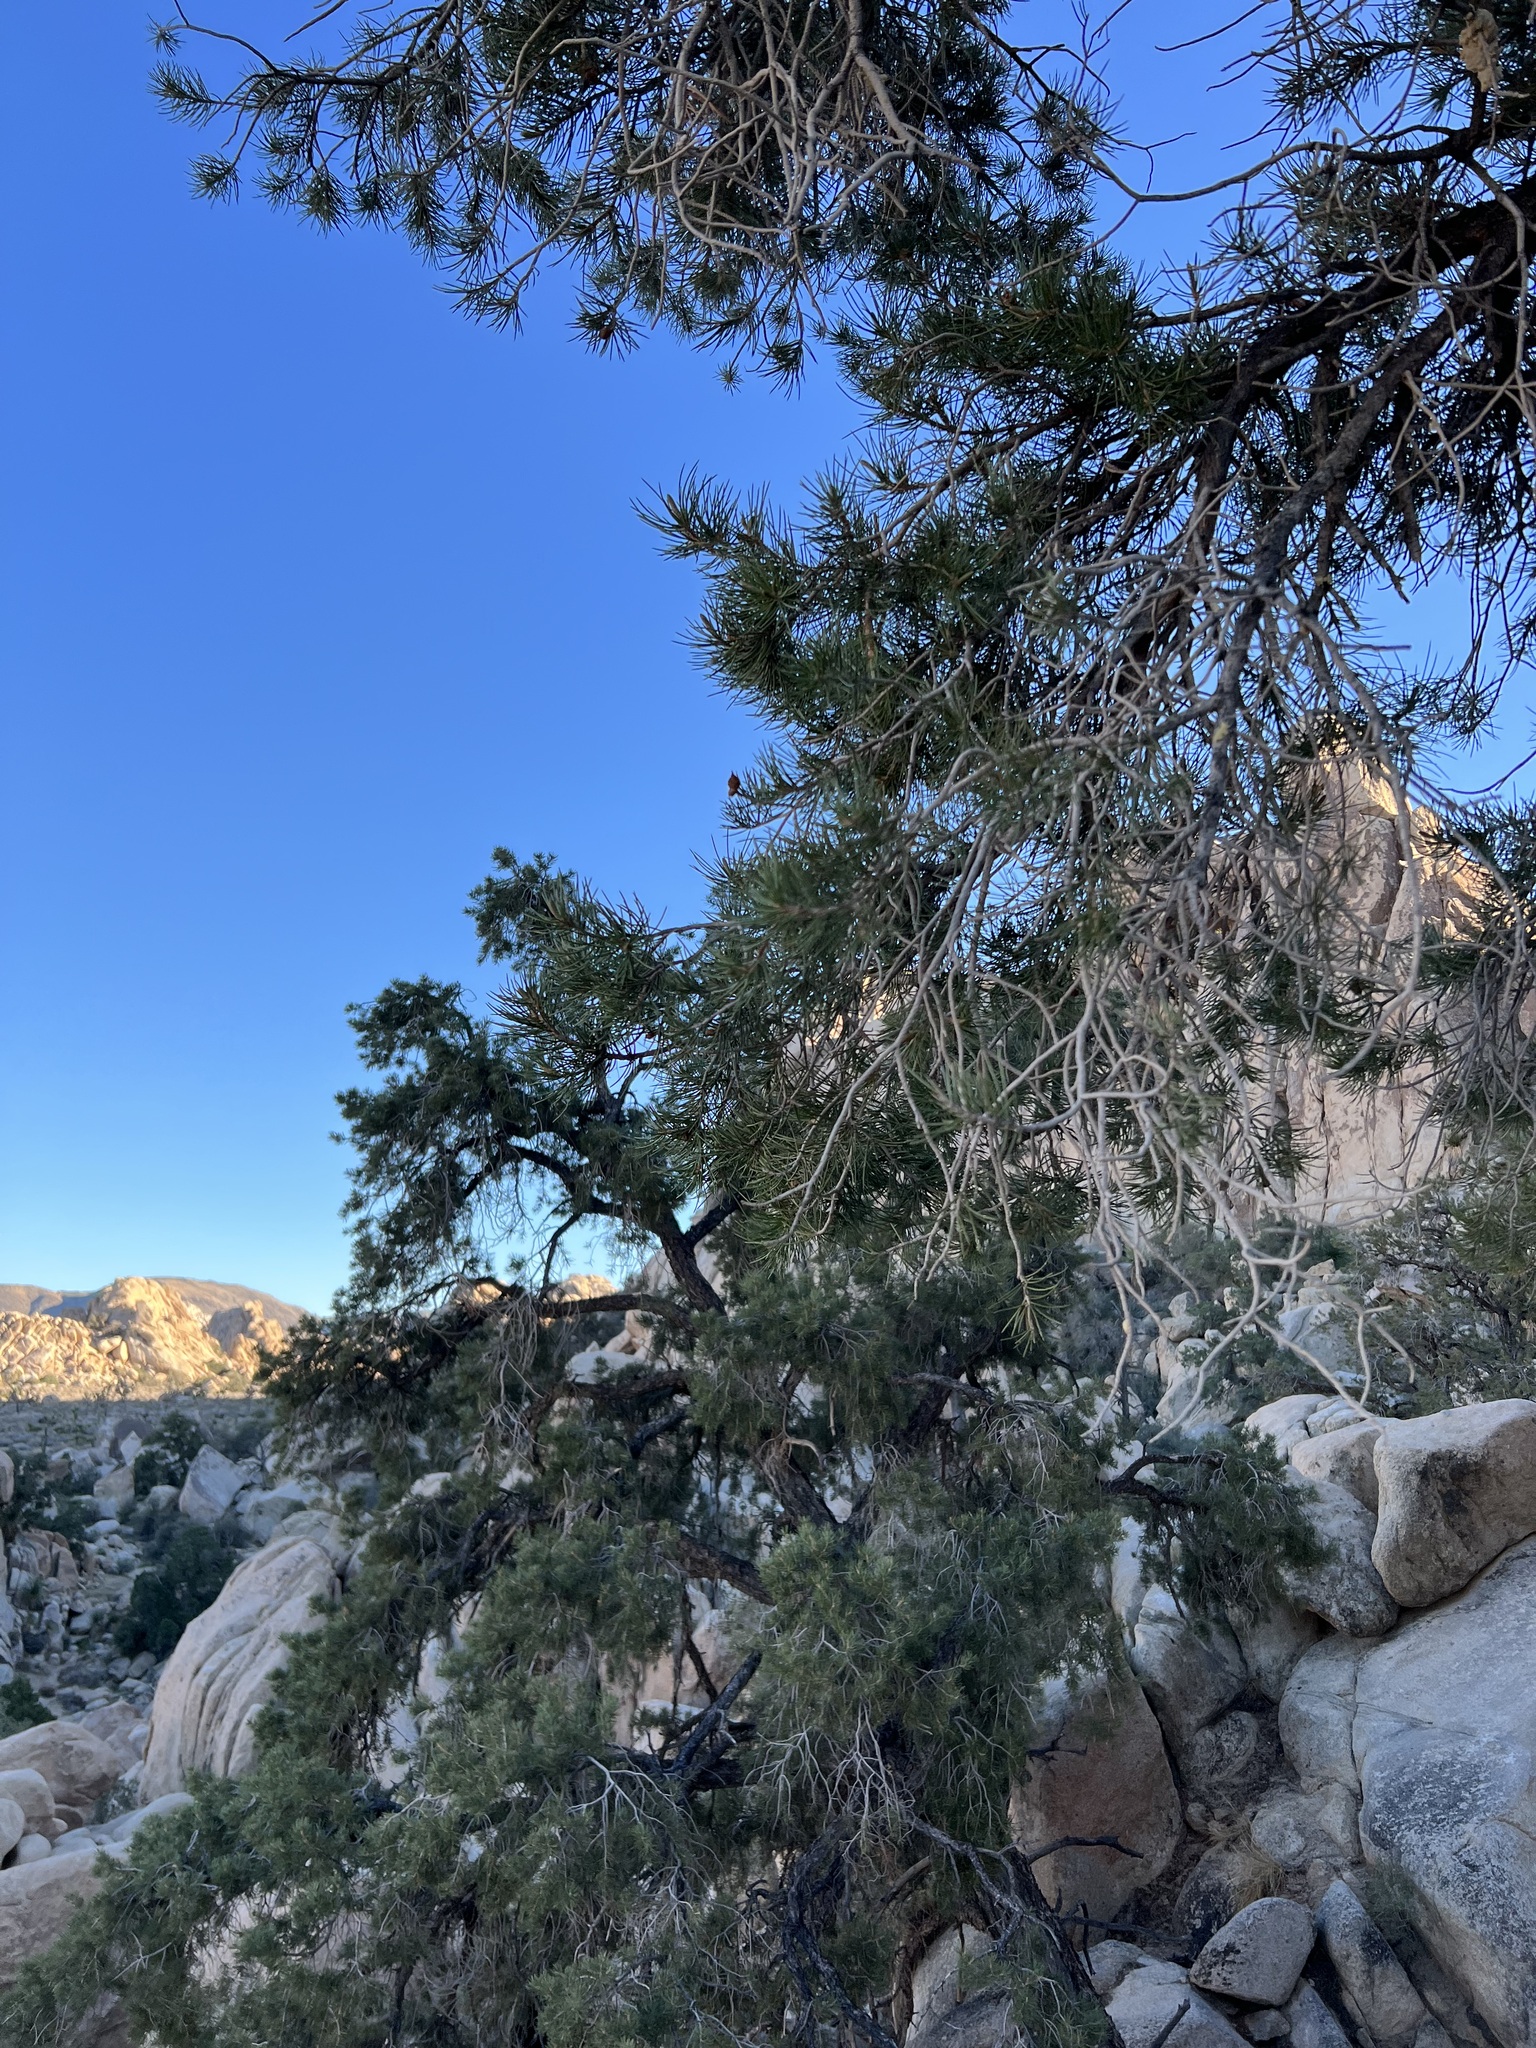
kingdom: Plantae
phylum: Tracheophyta
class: Pinopsida
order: Pinales
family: Pinaceae
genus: Pinus
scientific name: Pinus monophylla
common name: One-leaved nut pine
